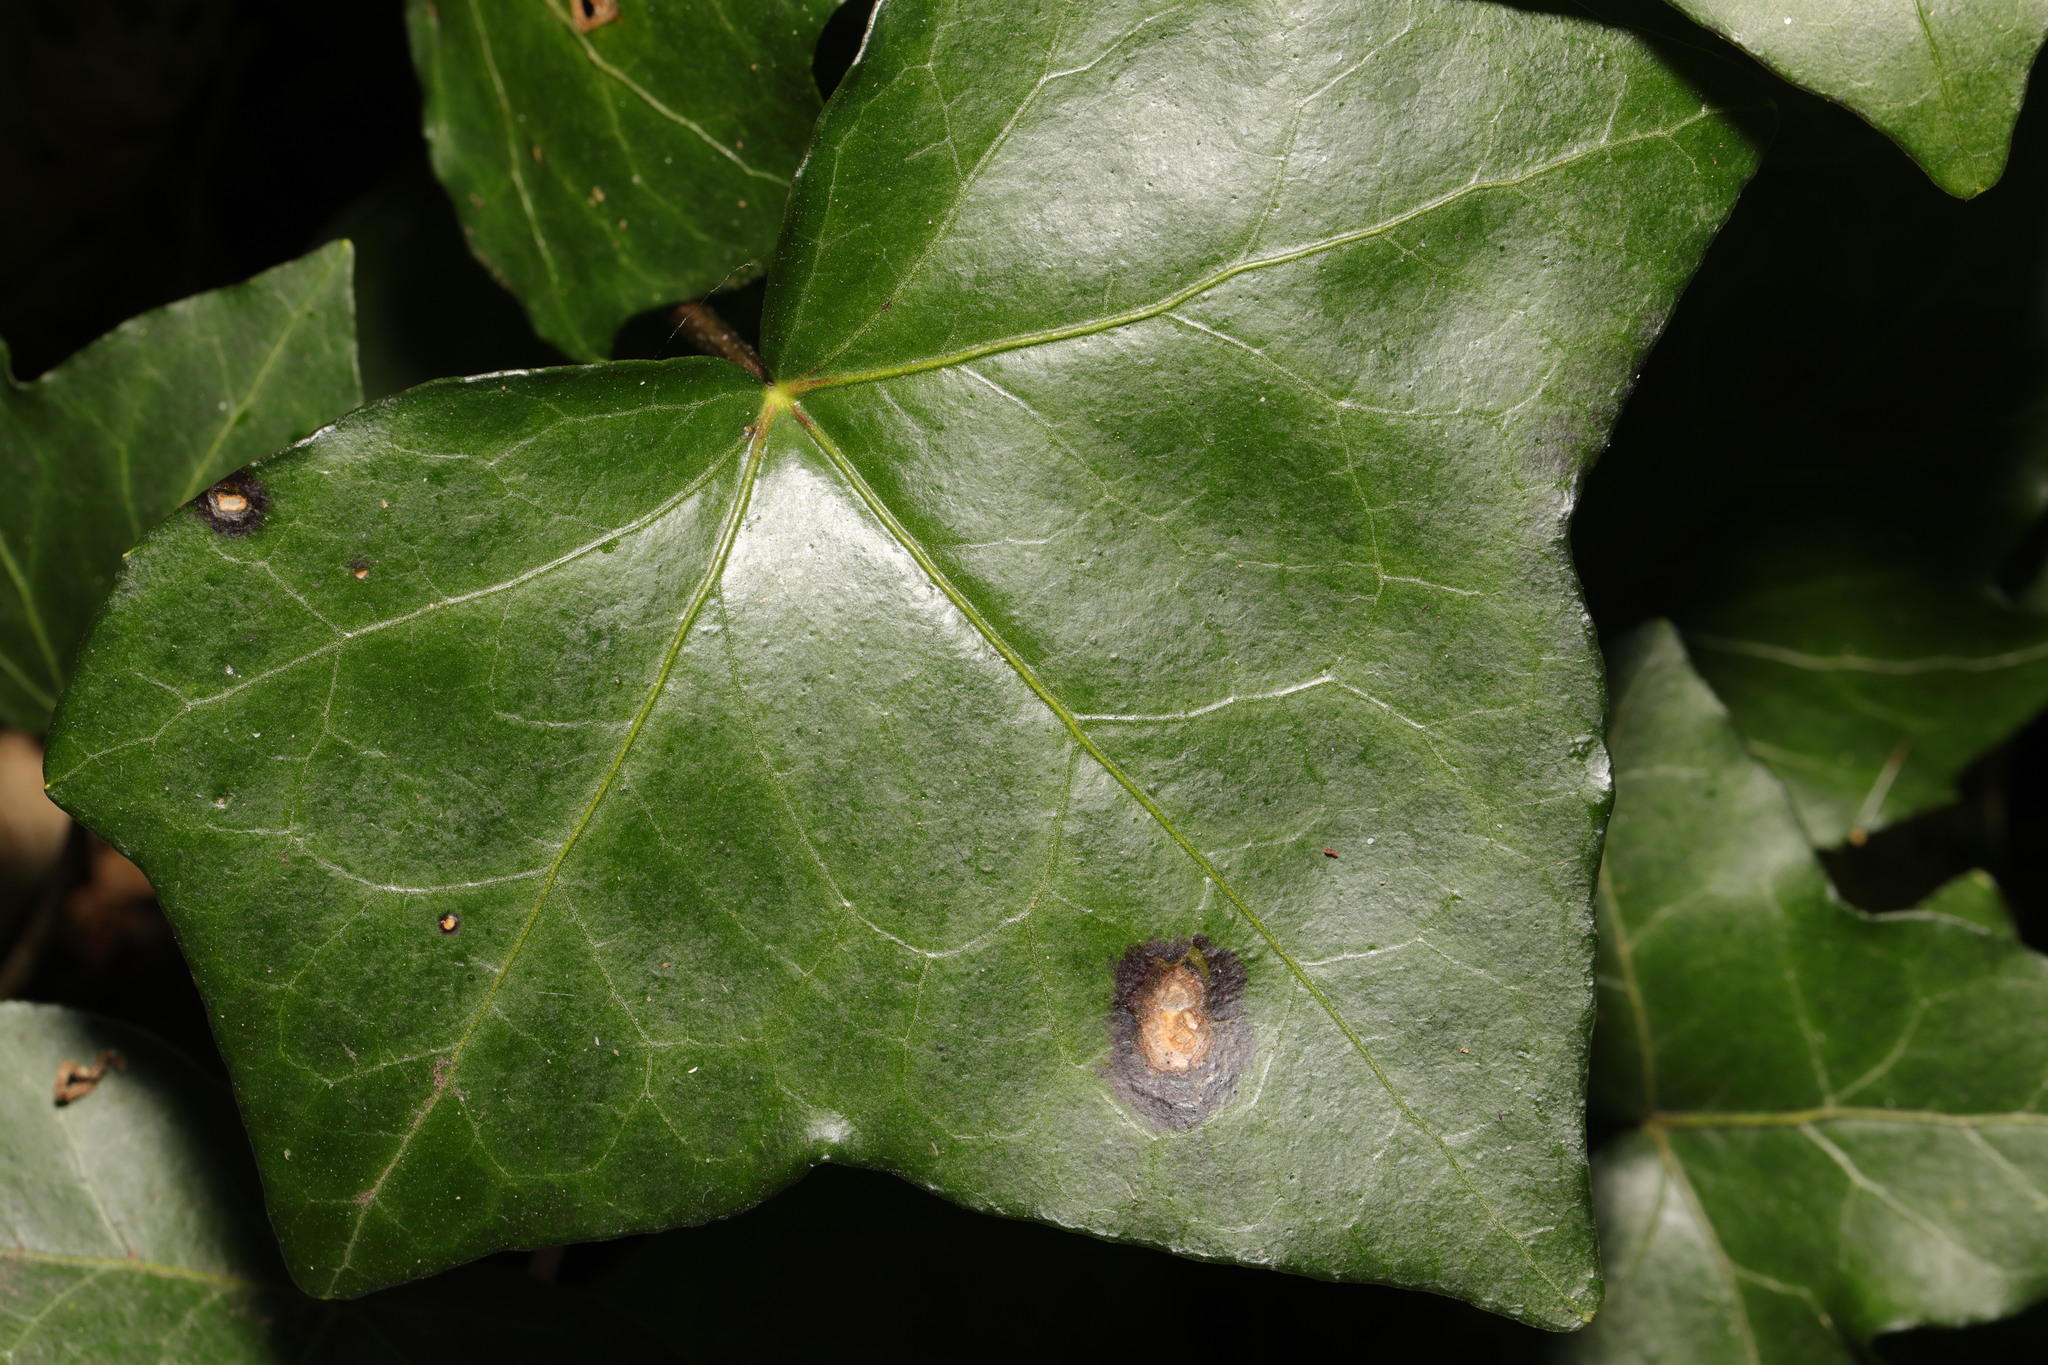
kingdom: Fungi
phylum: Ascomycota
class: Dothideomycetes
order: Pleosporales
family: Didymellaceae
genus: Boeremia
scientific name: Boeremia hedericola
